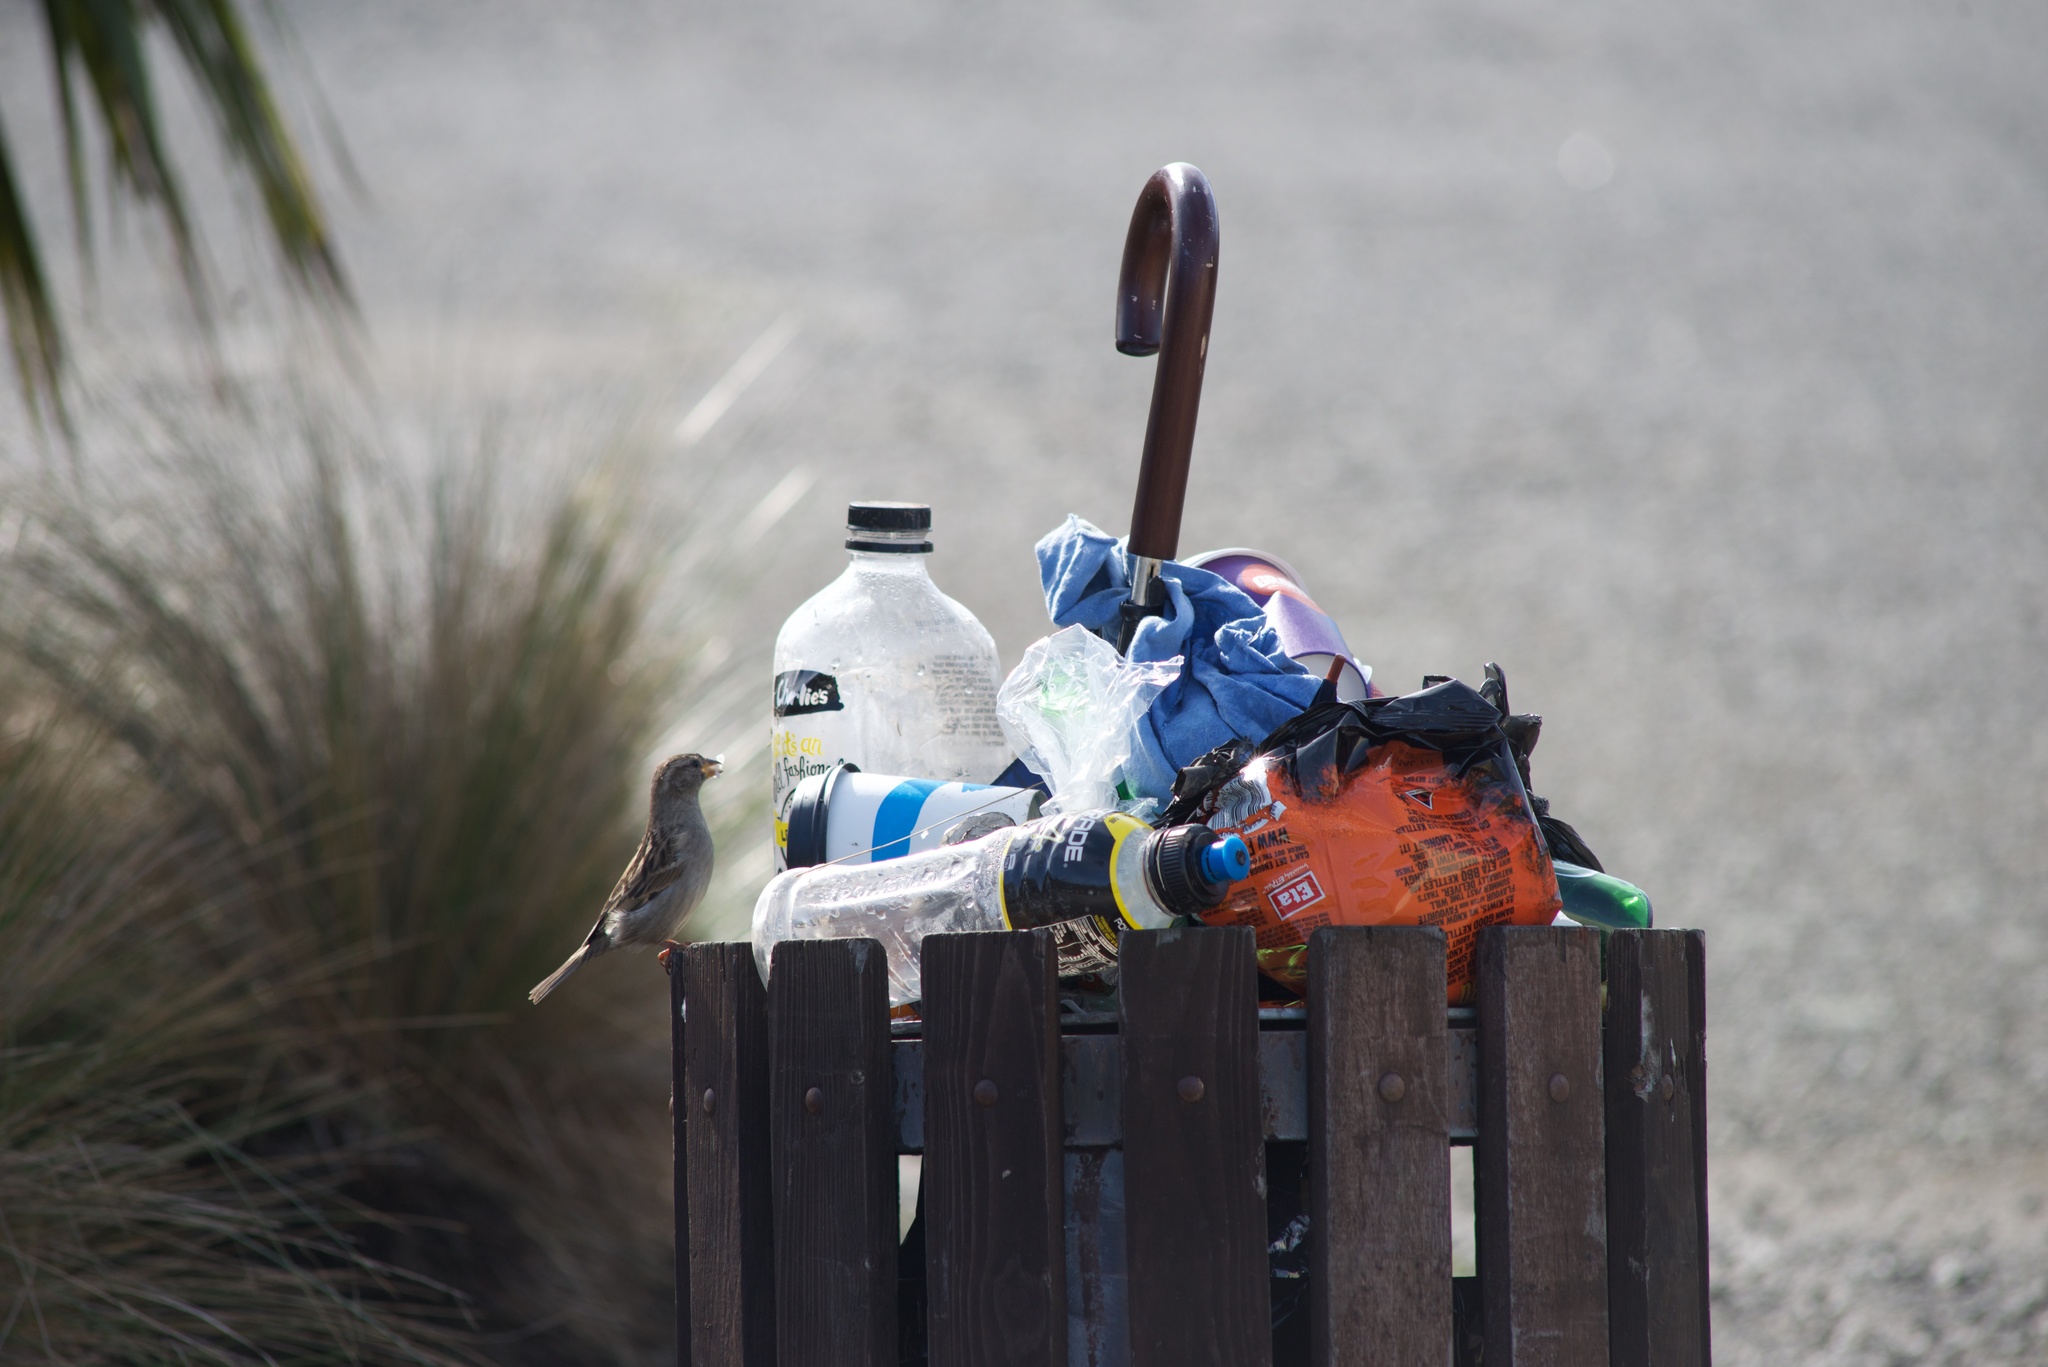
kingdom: Animalia
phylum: Chordata
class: Aves
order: Passeriformes
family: Passeridae
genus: Passer
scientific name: Passer domesticus
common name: House sparrow
